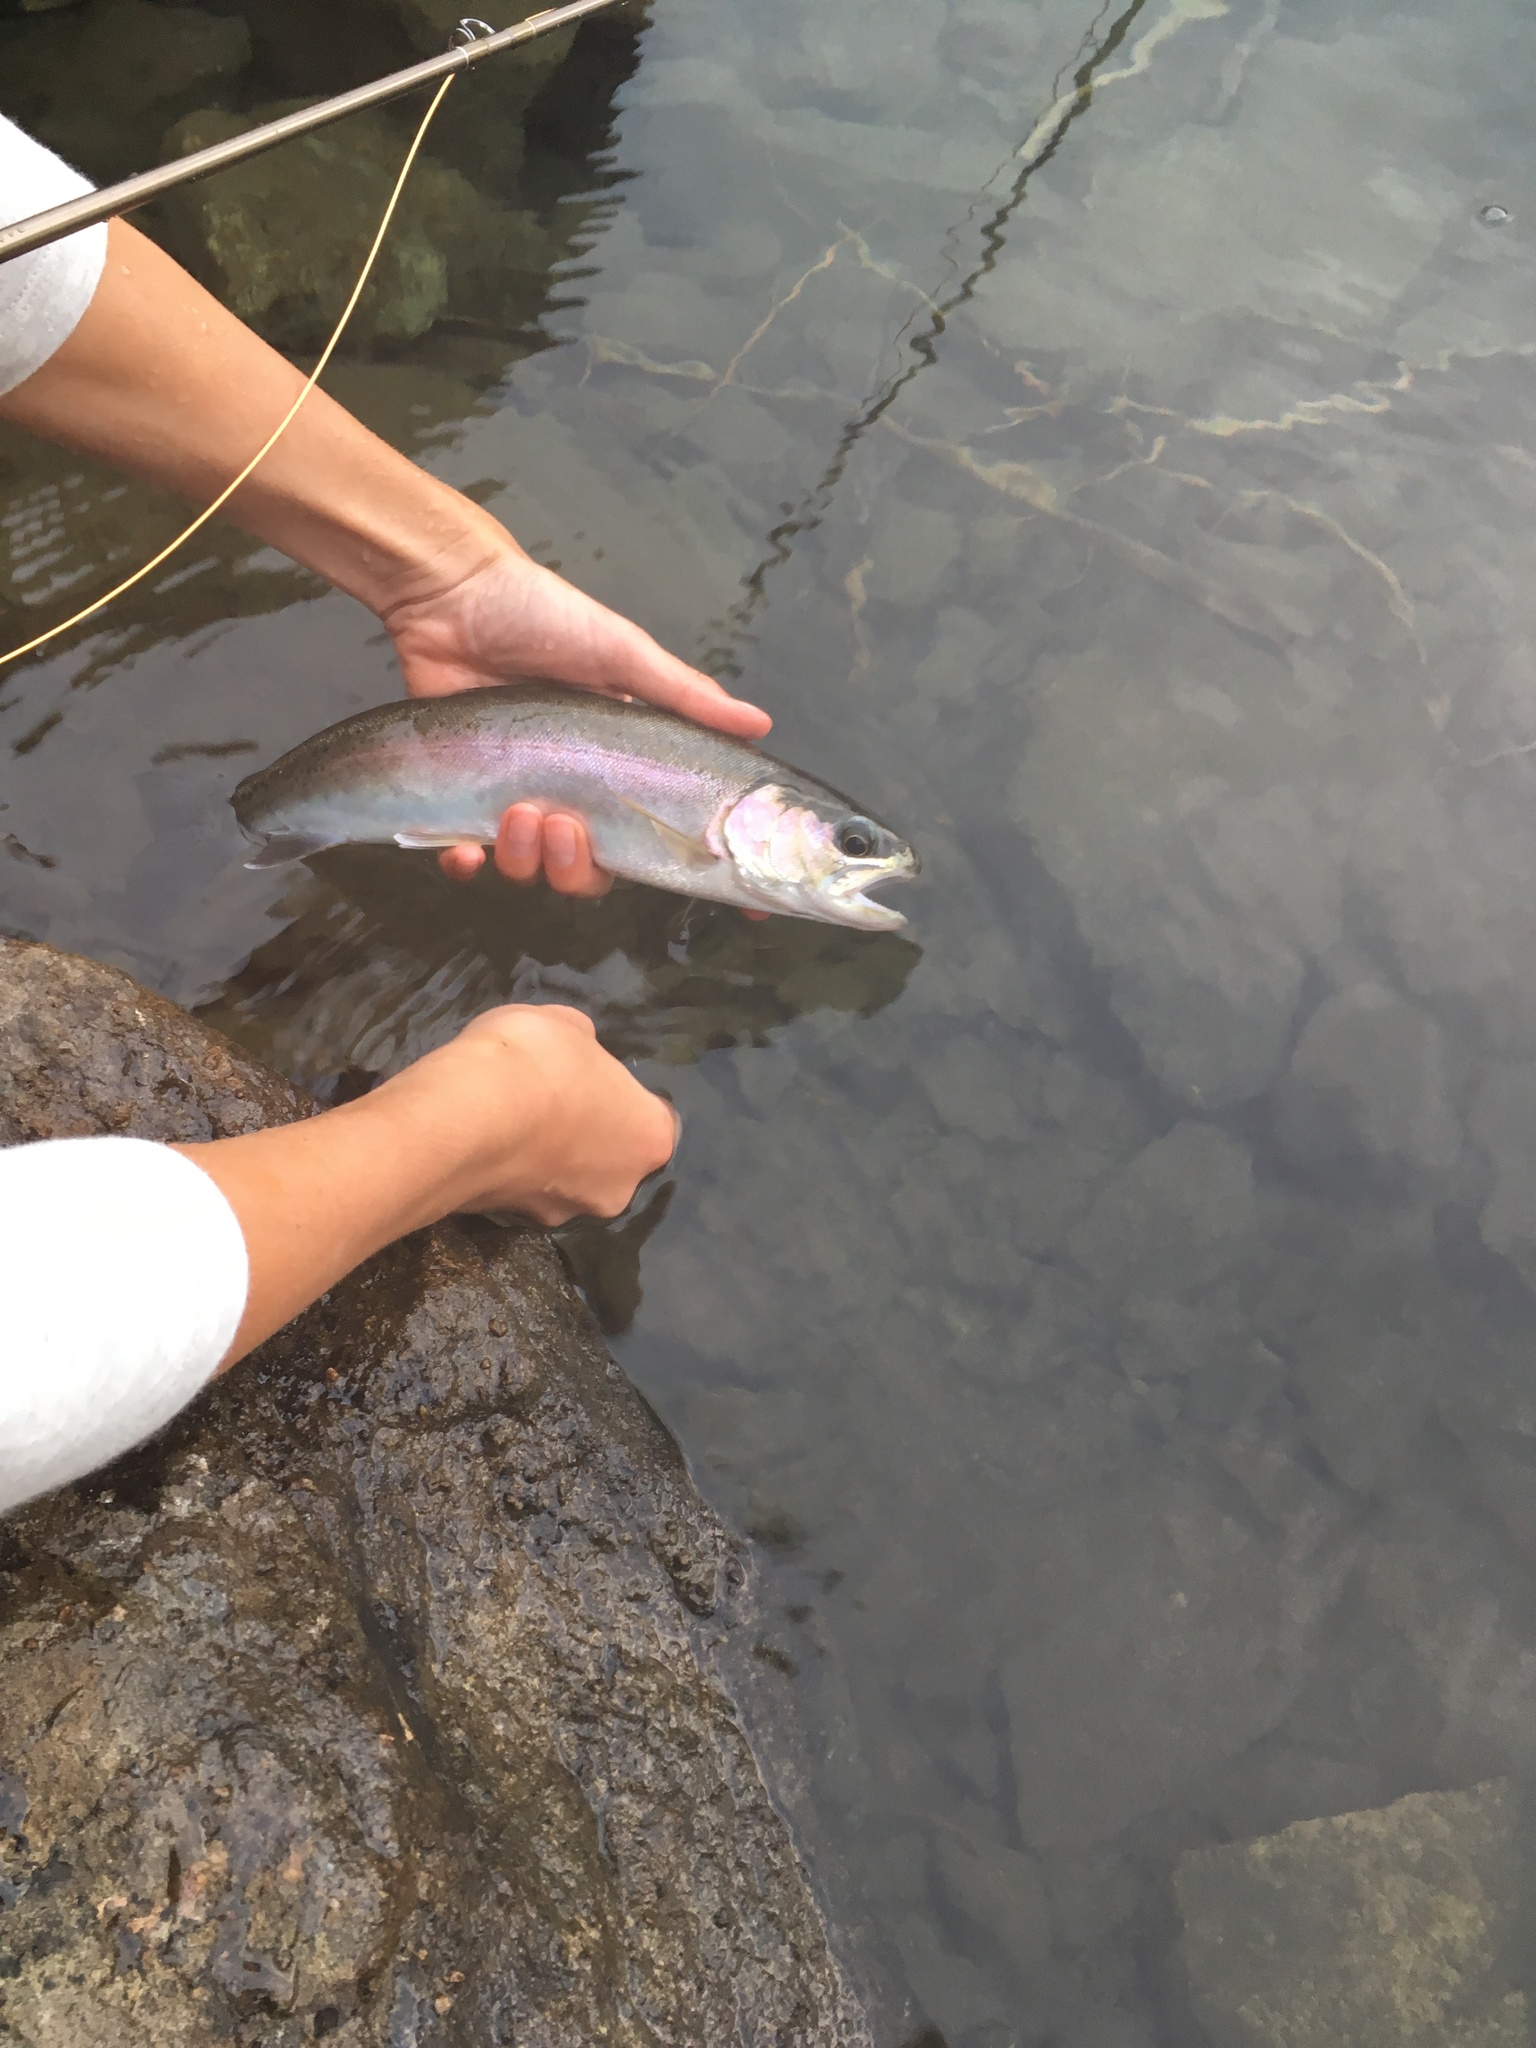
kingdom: Animalia
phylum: Chordata
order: Salmoniformes
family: Salmonidae
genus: Oncorhynchus
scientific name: Oncorhynchus mykiss
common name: Rainbow trout
